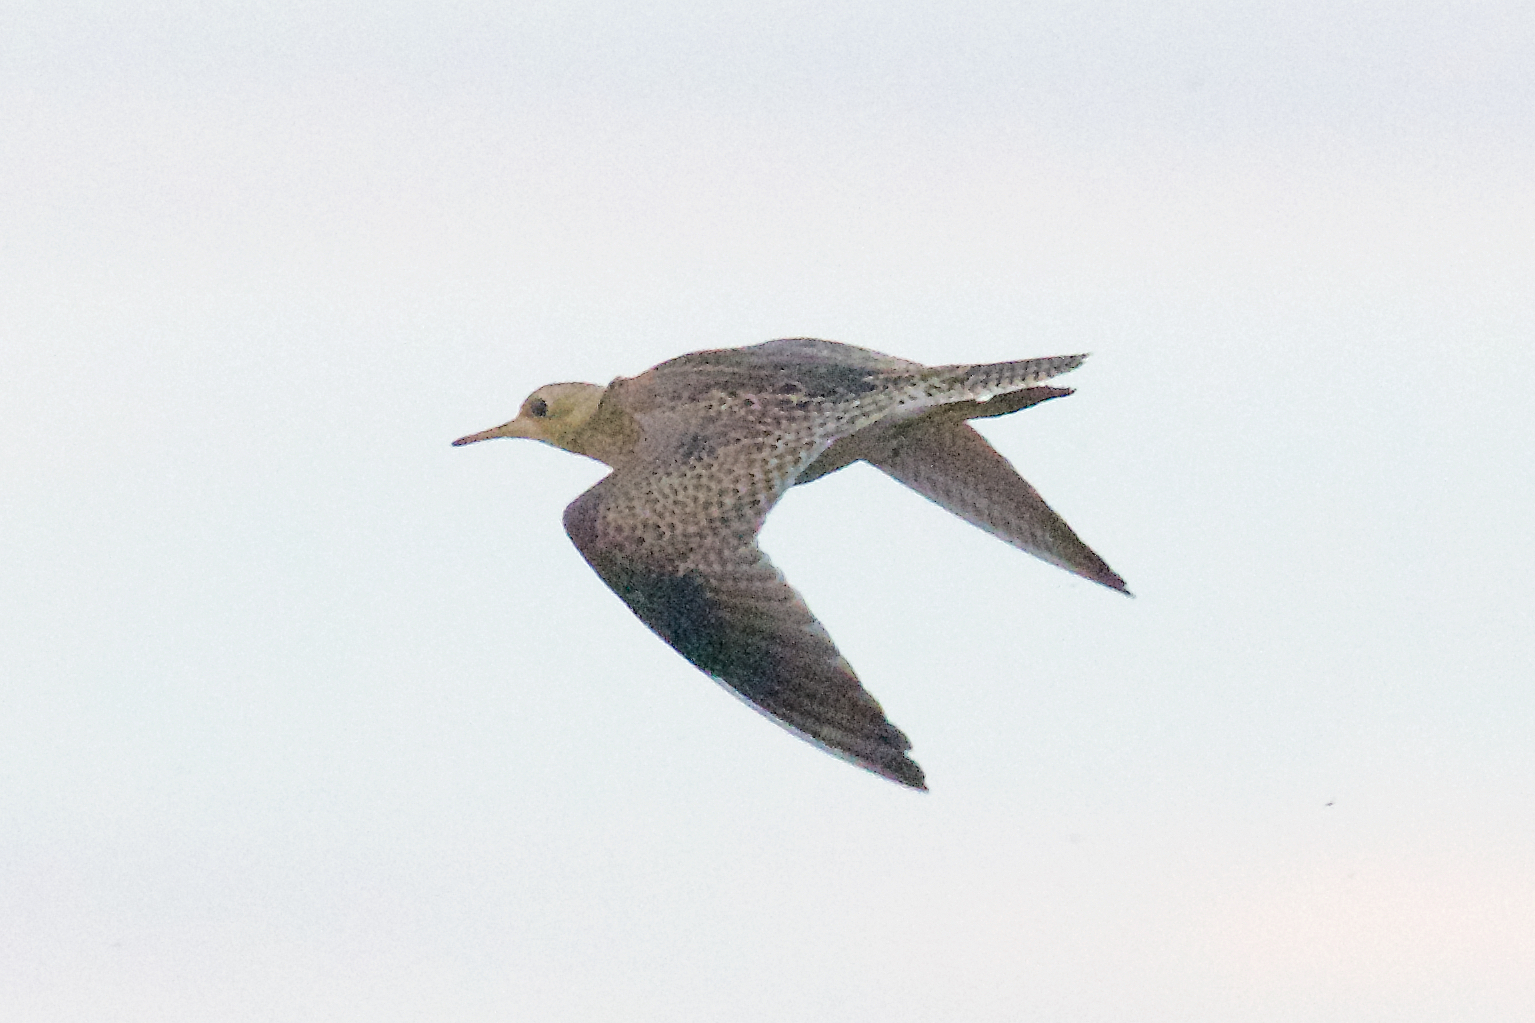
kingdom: Animalia
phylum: Chordata
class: Aves
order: Charadriiformes
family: Scolopacidae
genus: Bartramia
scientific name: Bartramia longicauda
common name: Upland sandpiper
